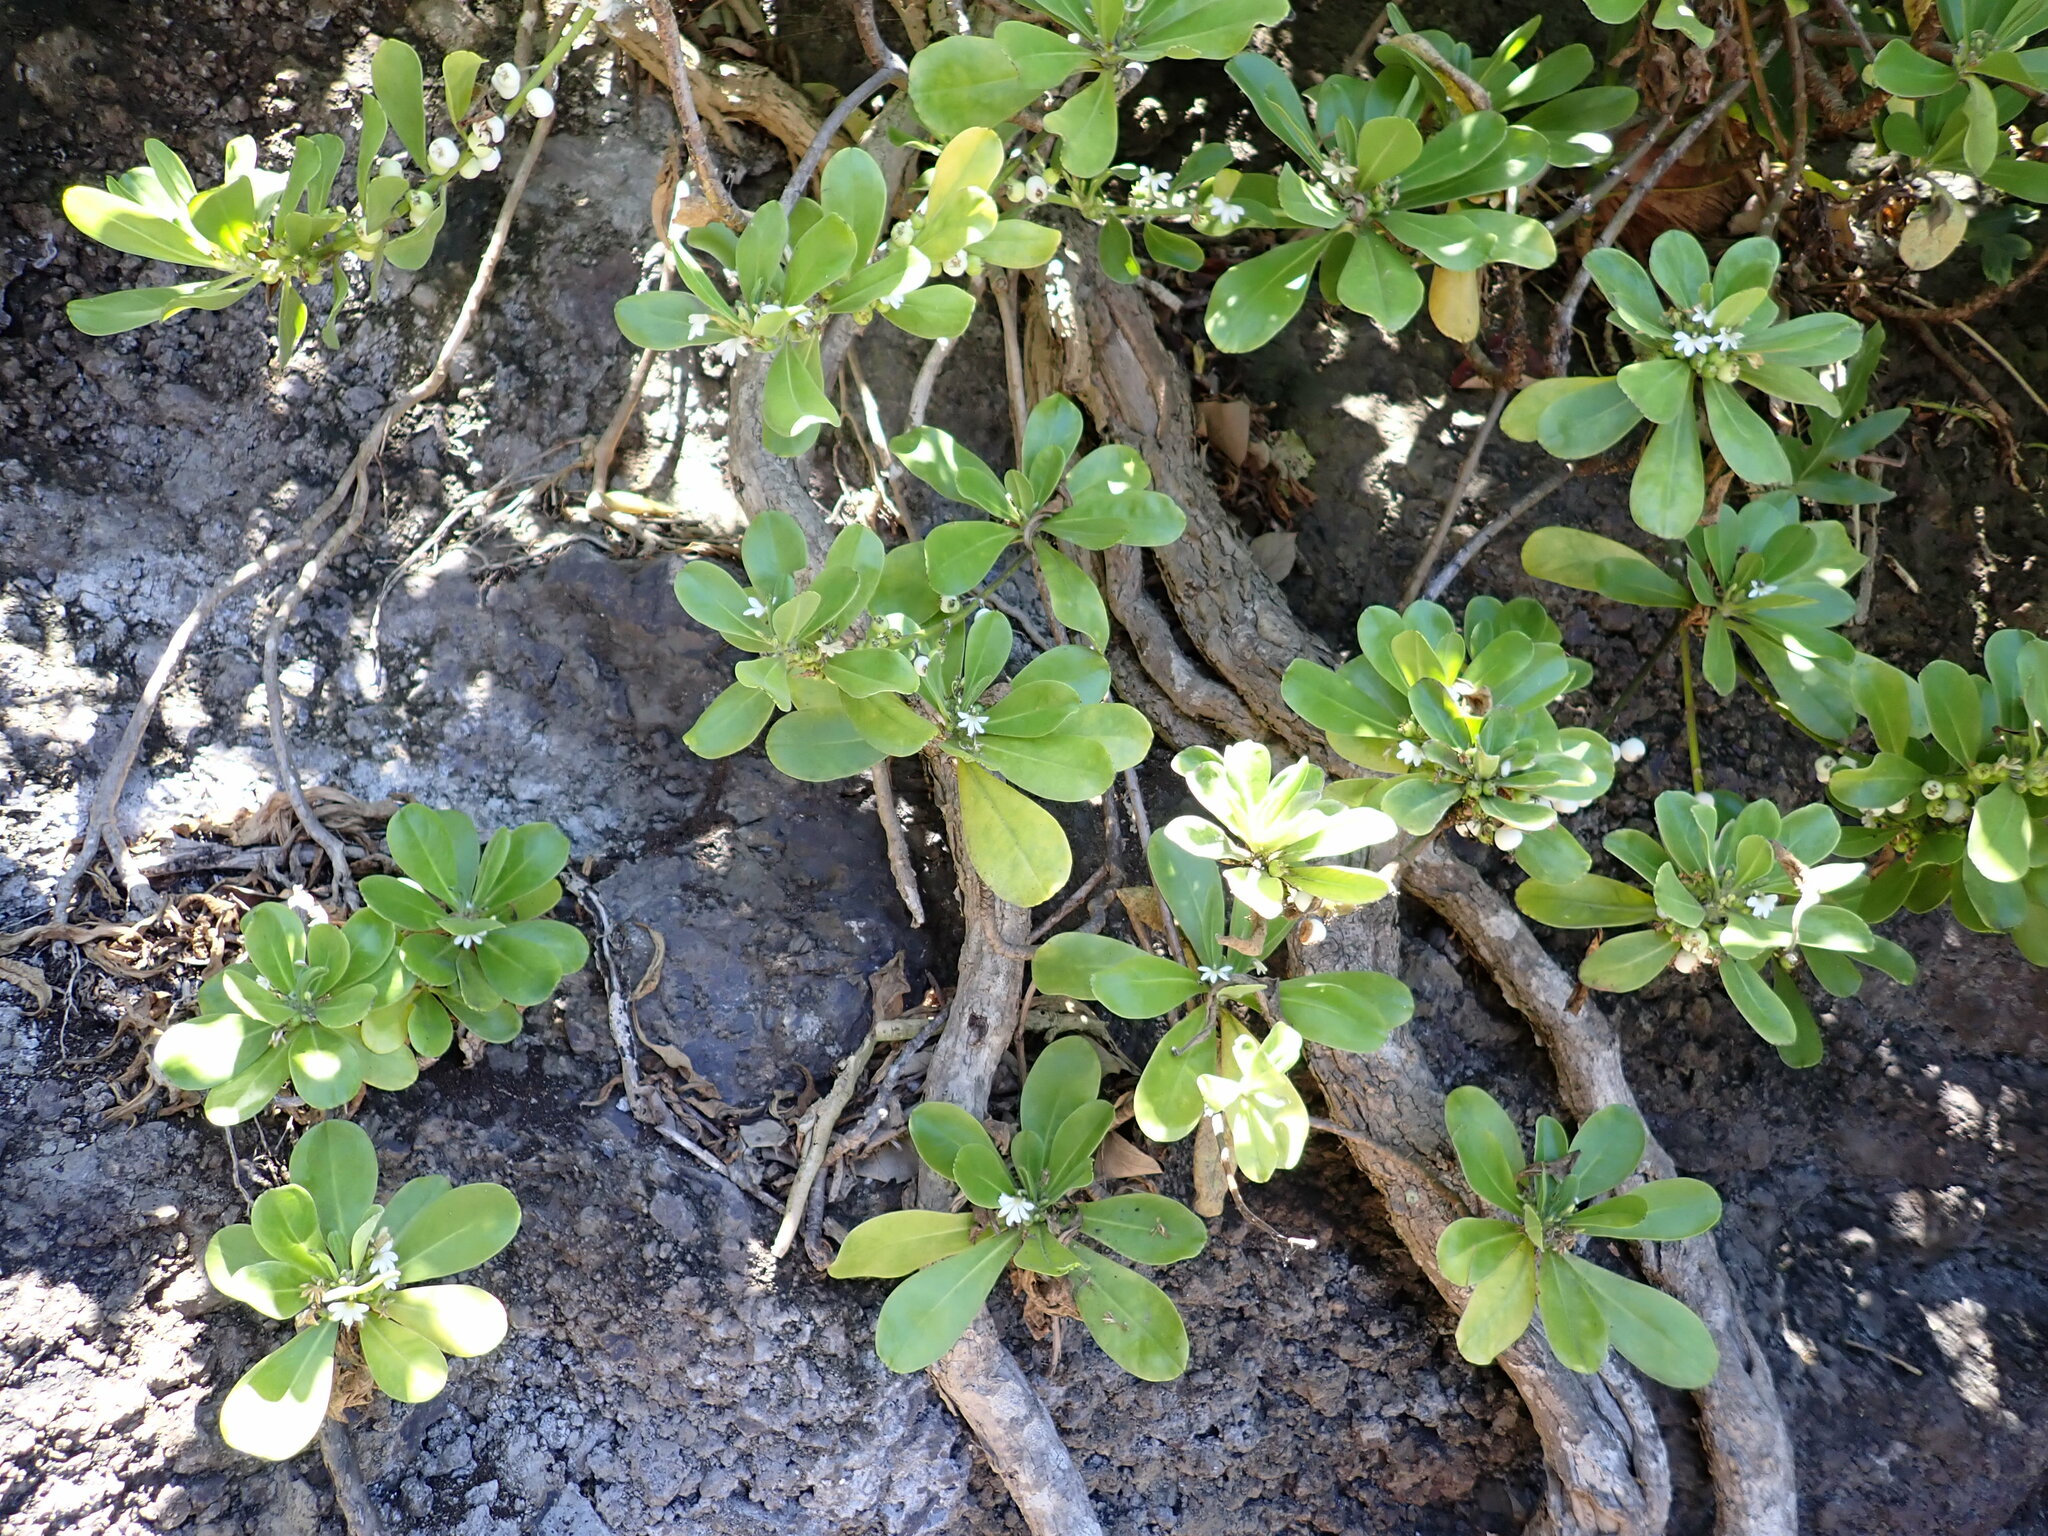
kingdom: Plantae
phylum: Tracheophyta
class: Magnoliopsida
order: Asterales
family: Goodeniaceae
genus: Scaevola
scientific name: Scaevola taccada
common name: Sea lettucetree
